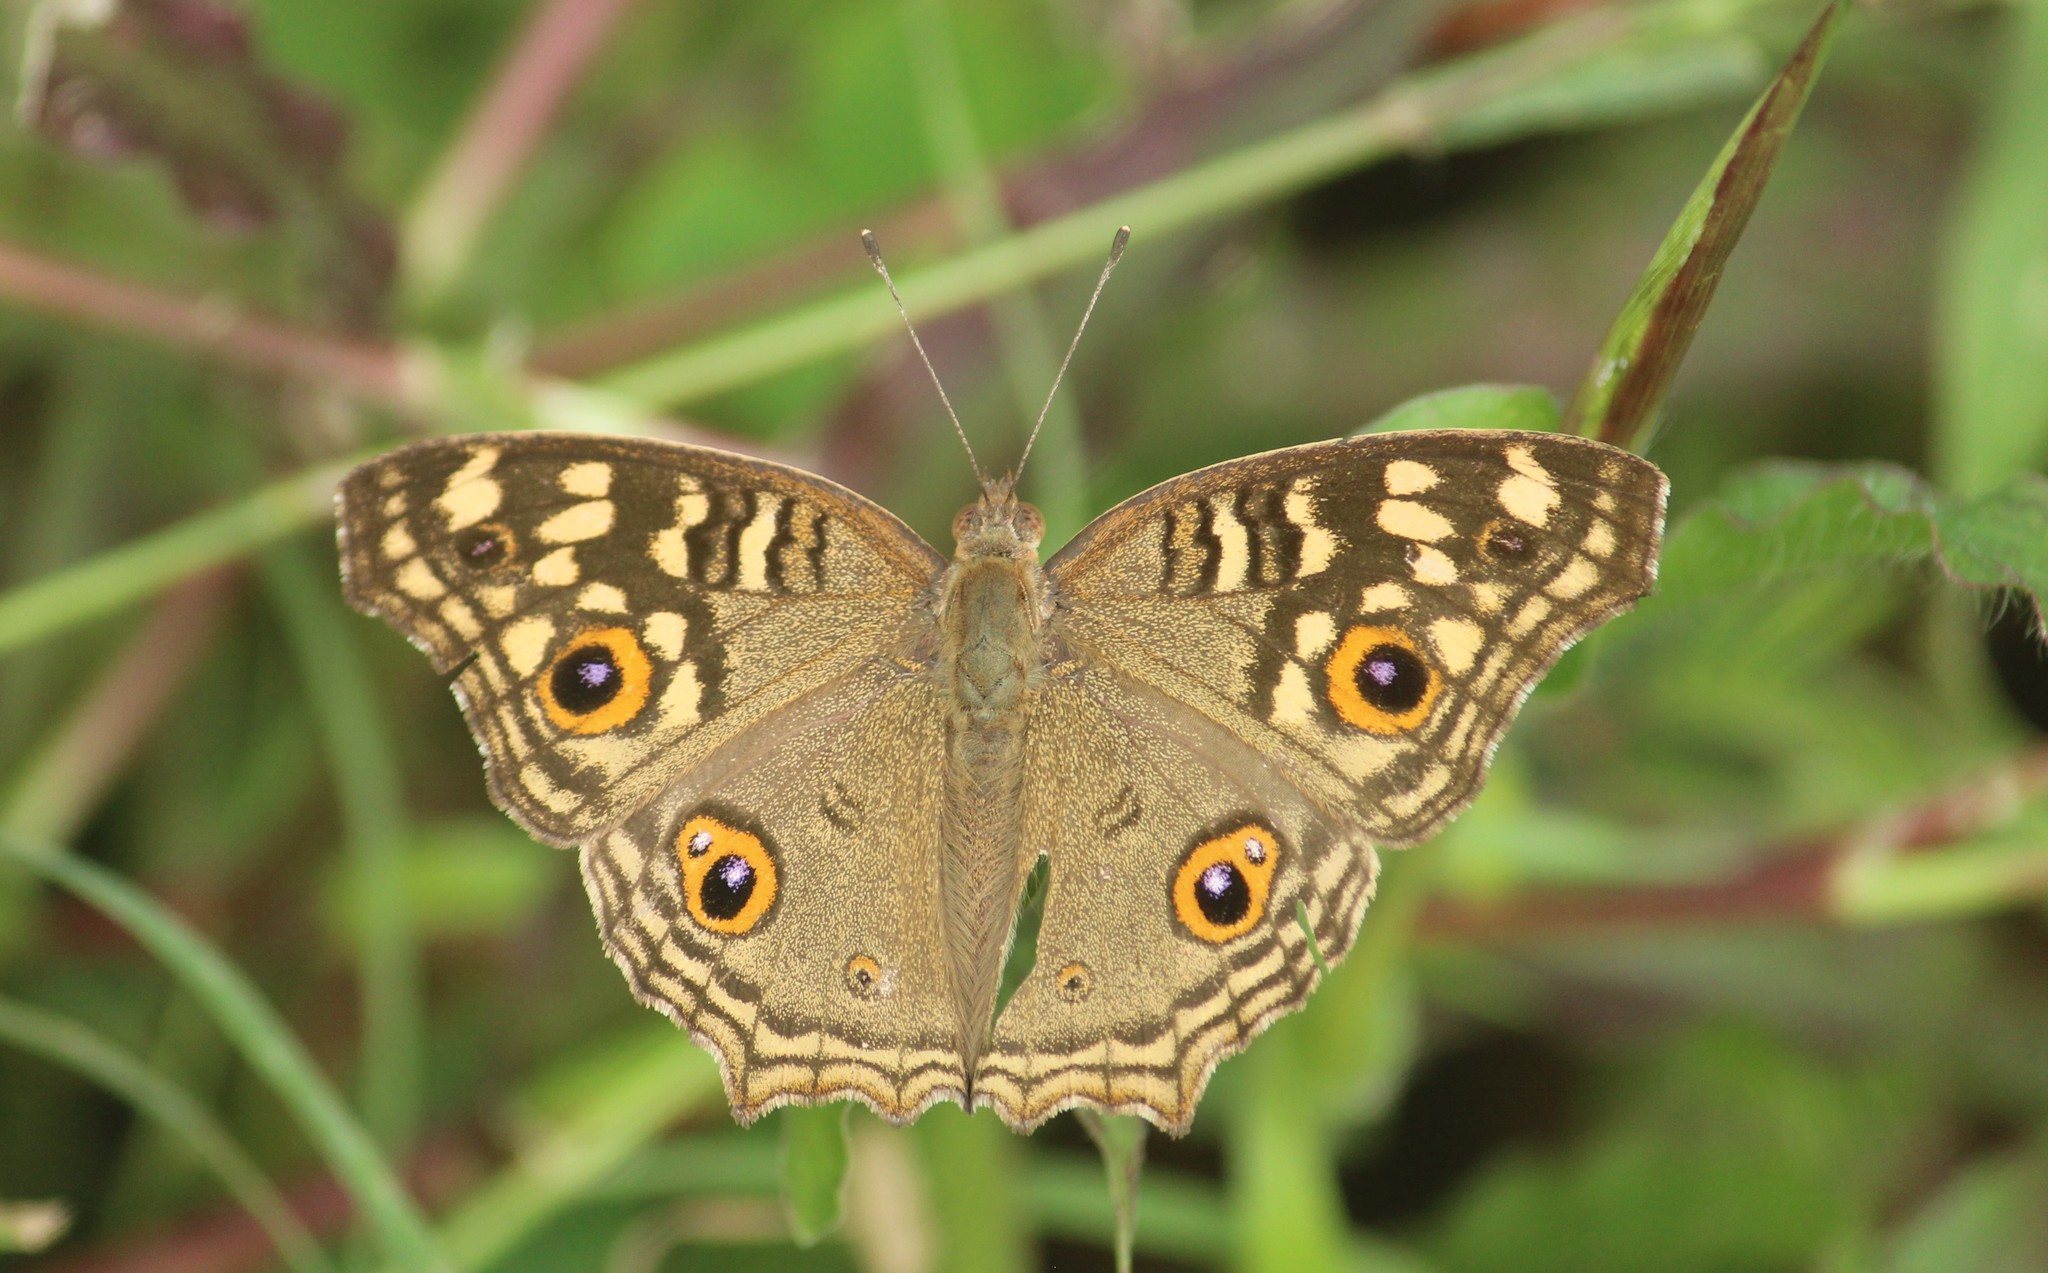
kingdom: Animalia
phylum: Arthropoda
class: Insecta
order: Lepidoptera
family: Nymphalidae
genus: Junonia
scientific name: Junonia lemonias
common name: Lemon pansy
